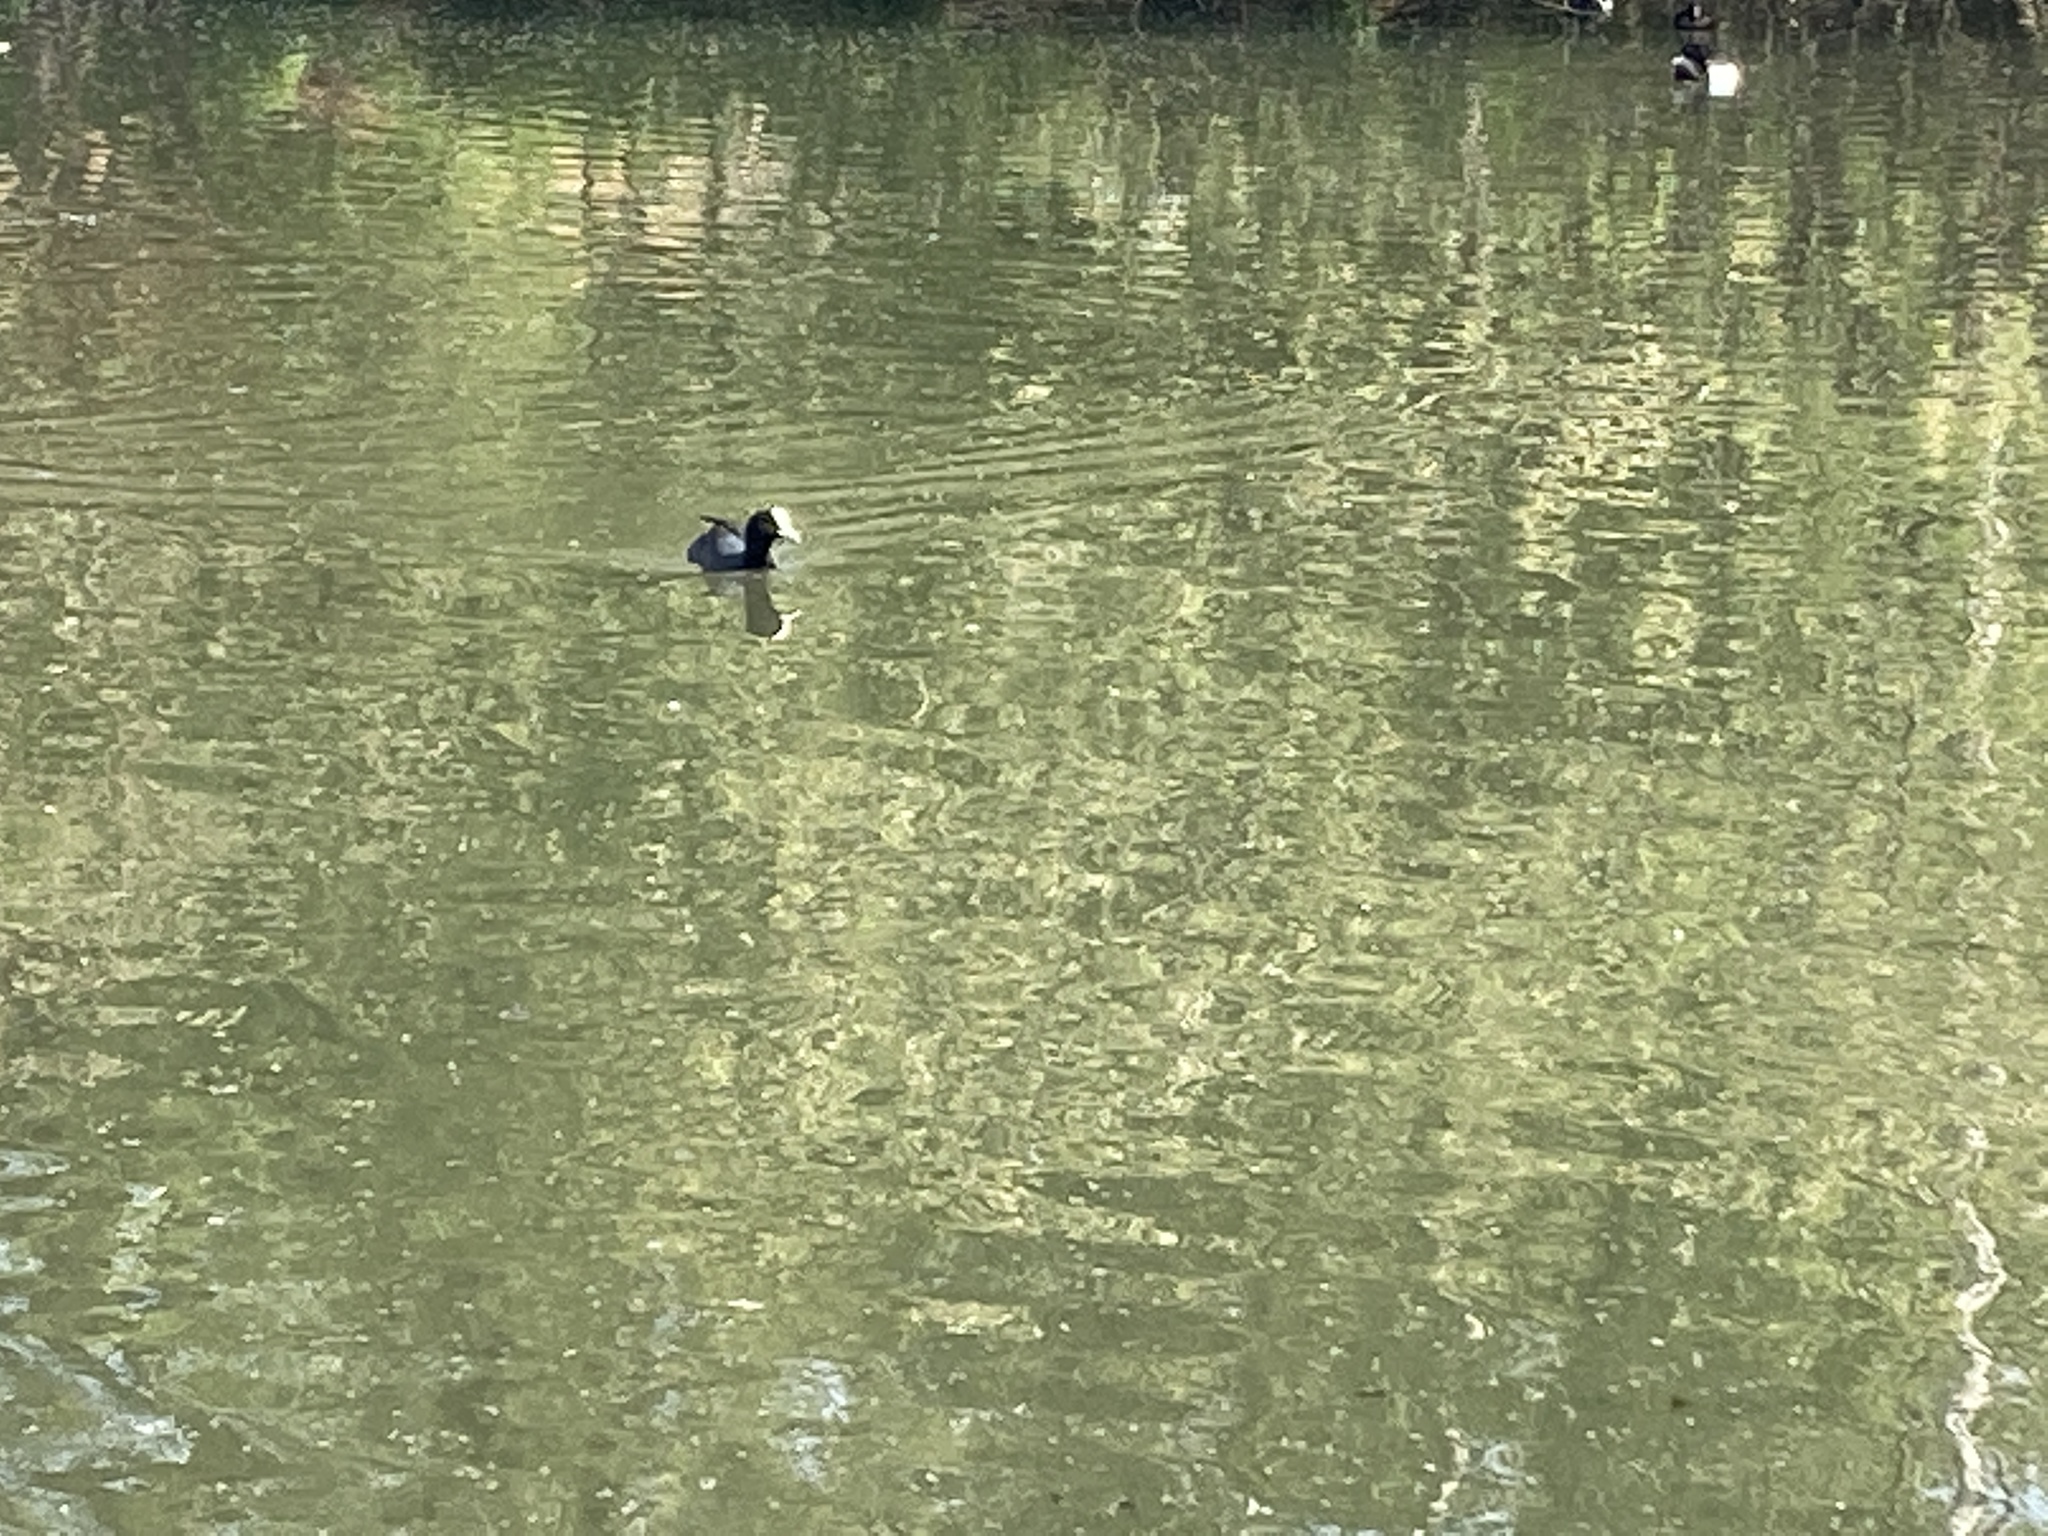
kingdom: Animalia
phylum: Chordata
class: Aves
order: Gruiformes
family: Rallidae
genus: Fulica
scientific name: Fulica atra
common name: Eurasian coot
